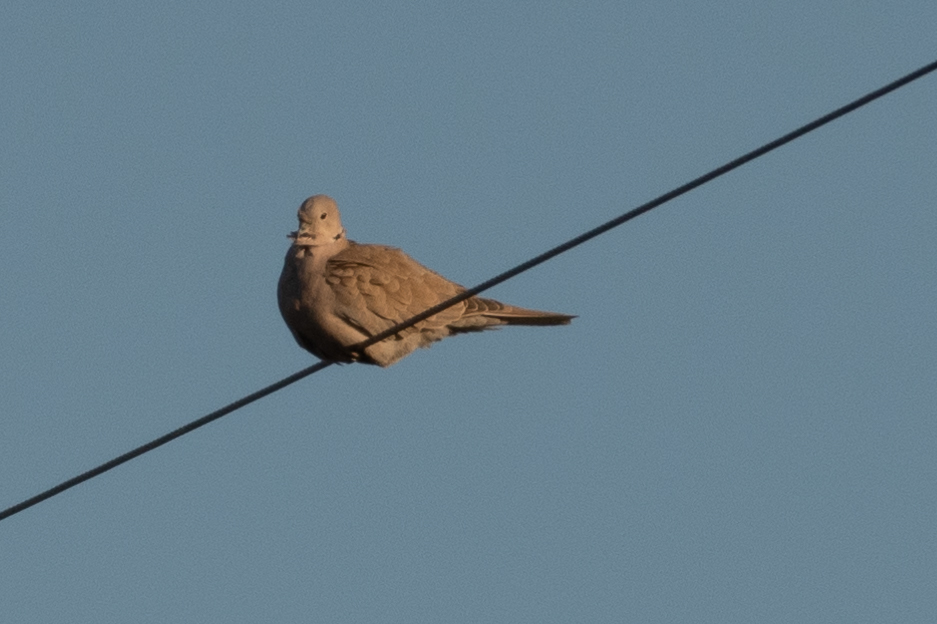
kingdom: Animalia
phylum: Chordata
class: Aves
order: Columbiformes
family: Columbidae
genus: Streptopelia
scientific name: Streptopelia decaocto
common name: Eurasian collared dove
